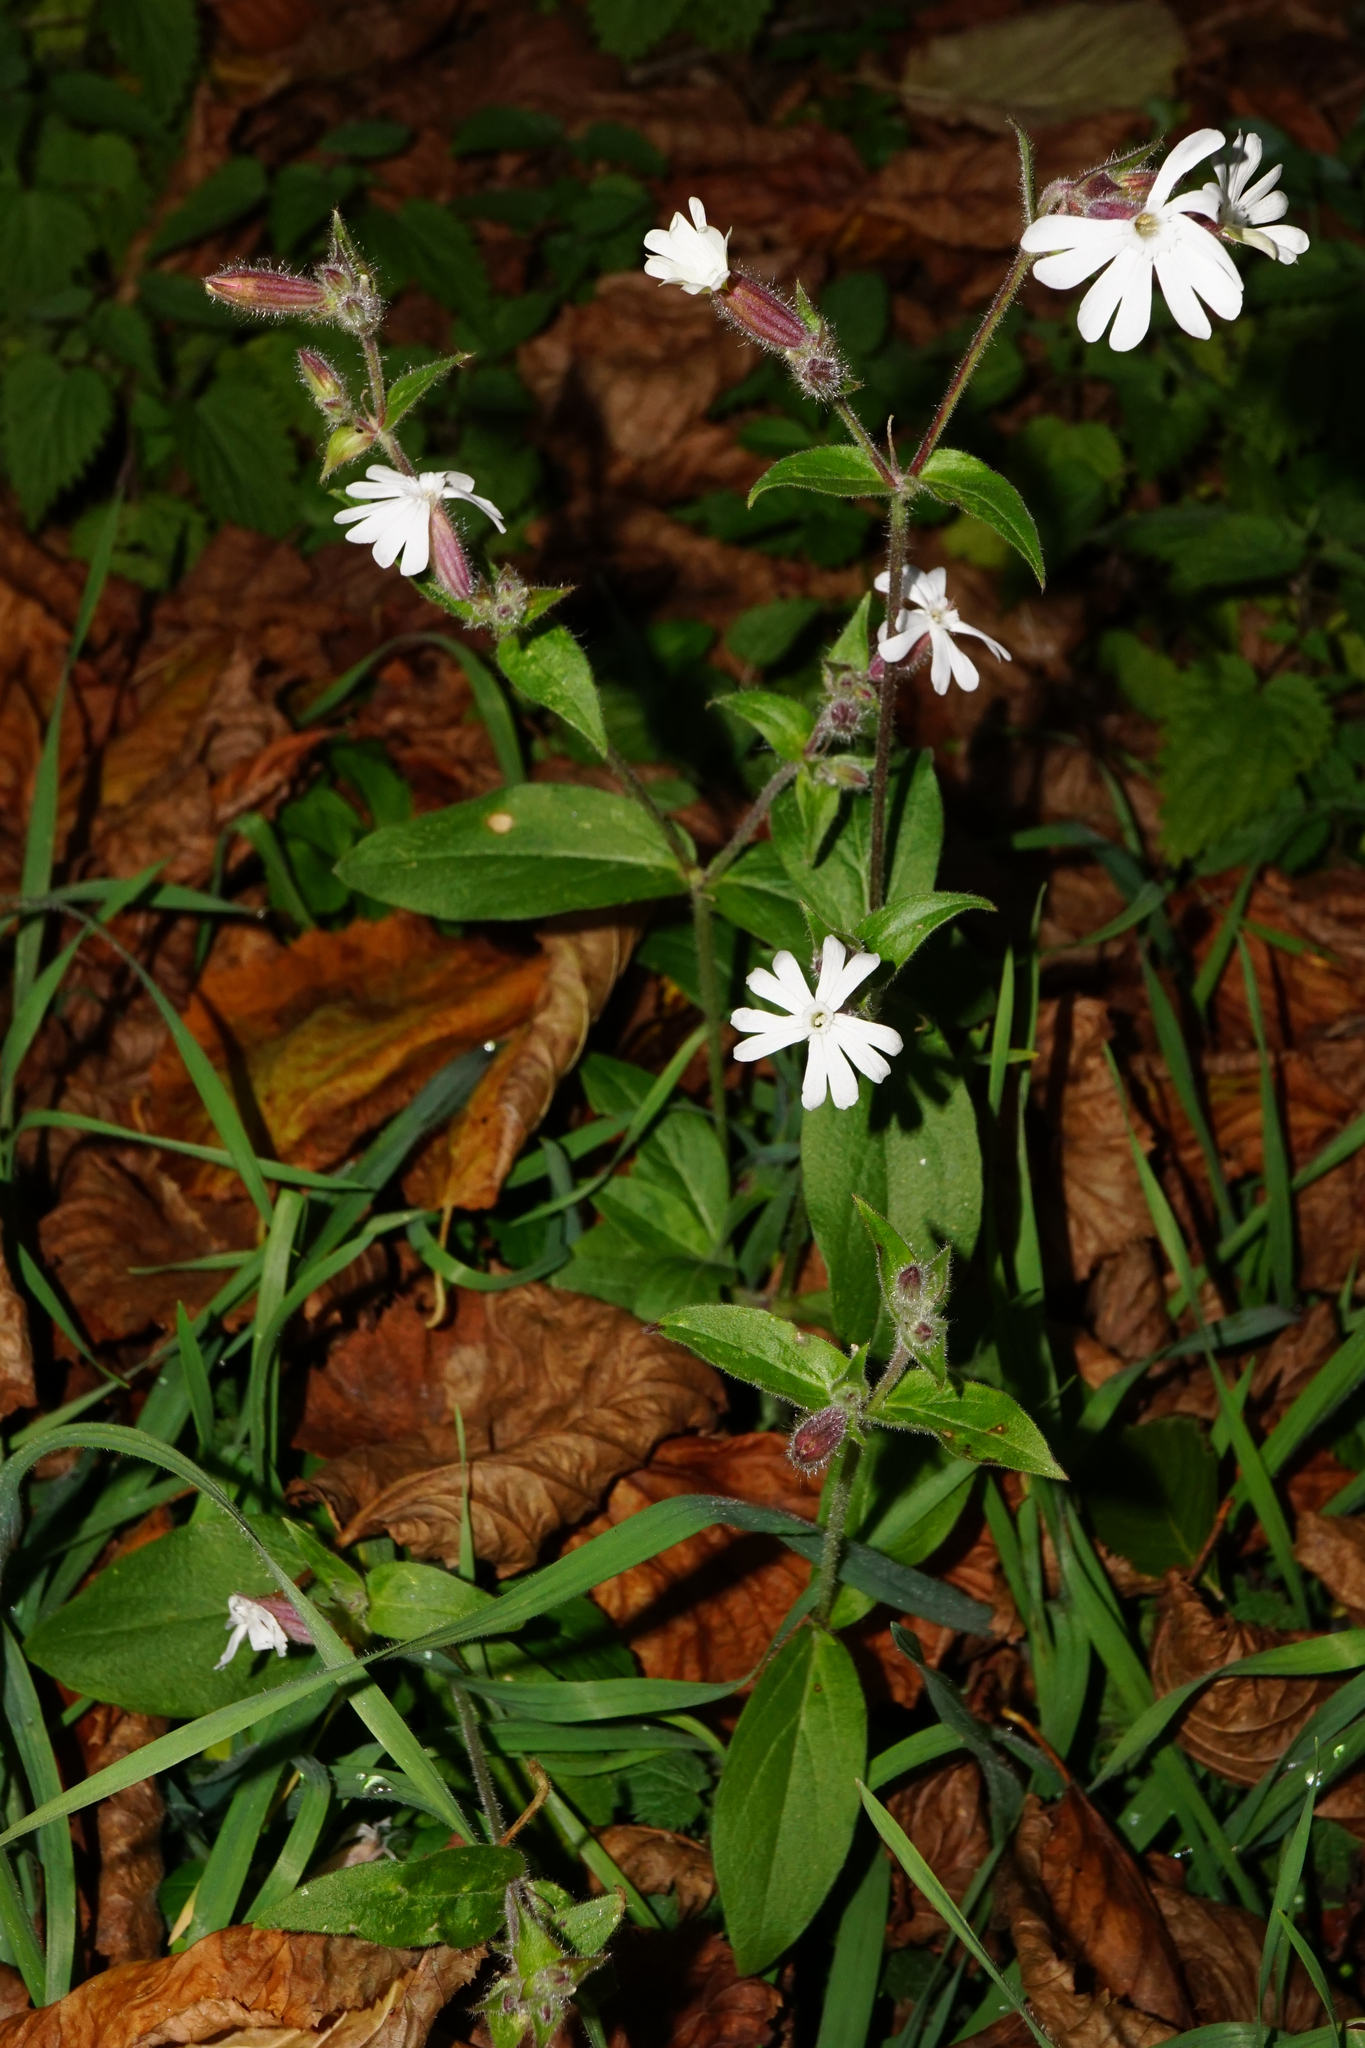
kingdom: Plantae
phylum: Tracheophyta
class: Magnoliopsida
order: Caryophyllales
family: Caryophyllaceae
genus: Silene
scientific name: Silene latifolia
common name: White campion
